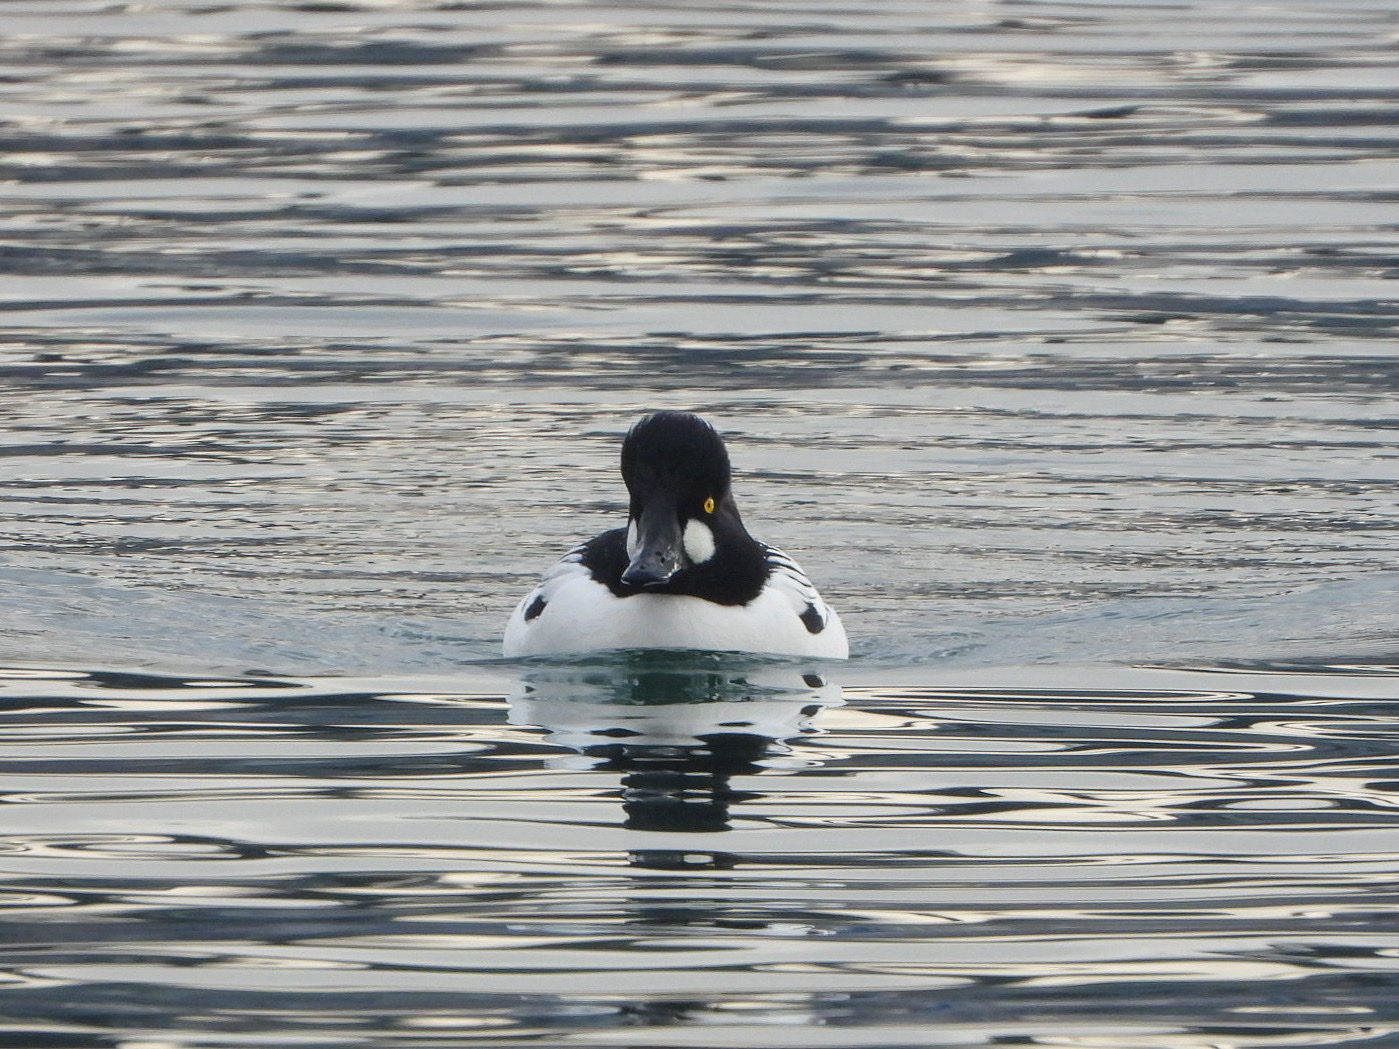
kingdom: Animalia
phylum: Chordata
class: Aves
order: Anseriformes
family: Anatidae
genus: Bucephala
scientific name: Bucephala clangula
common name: Common goldeneye
